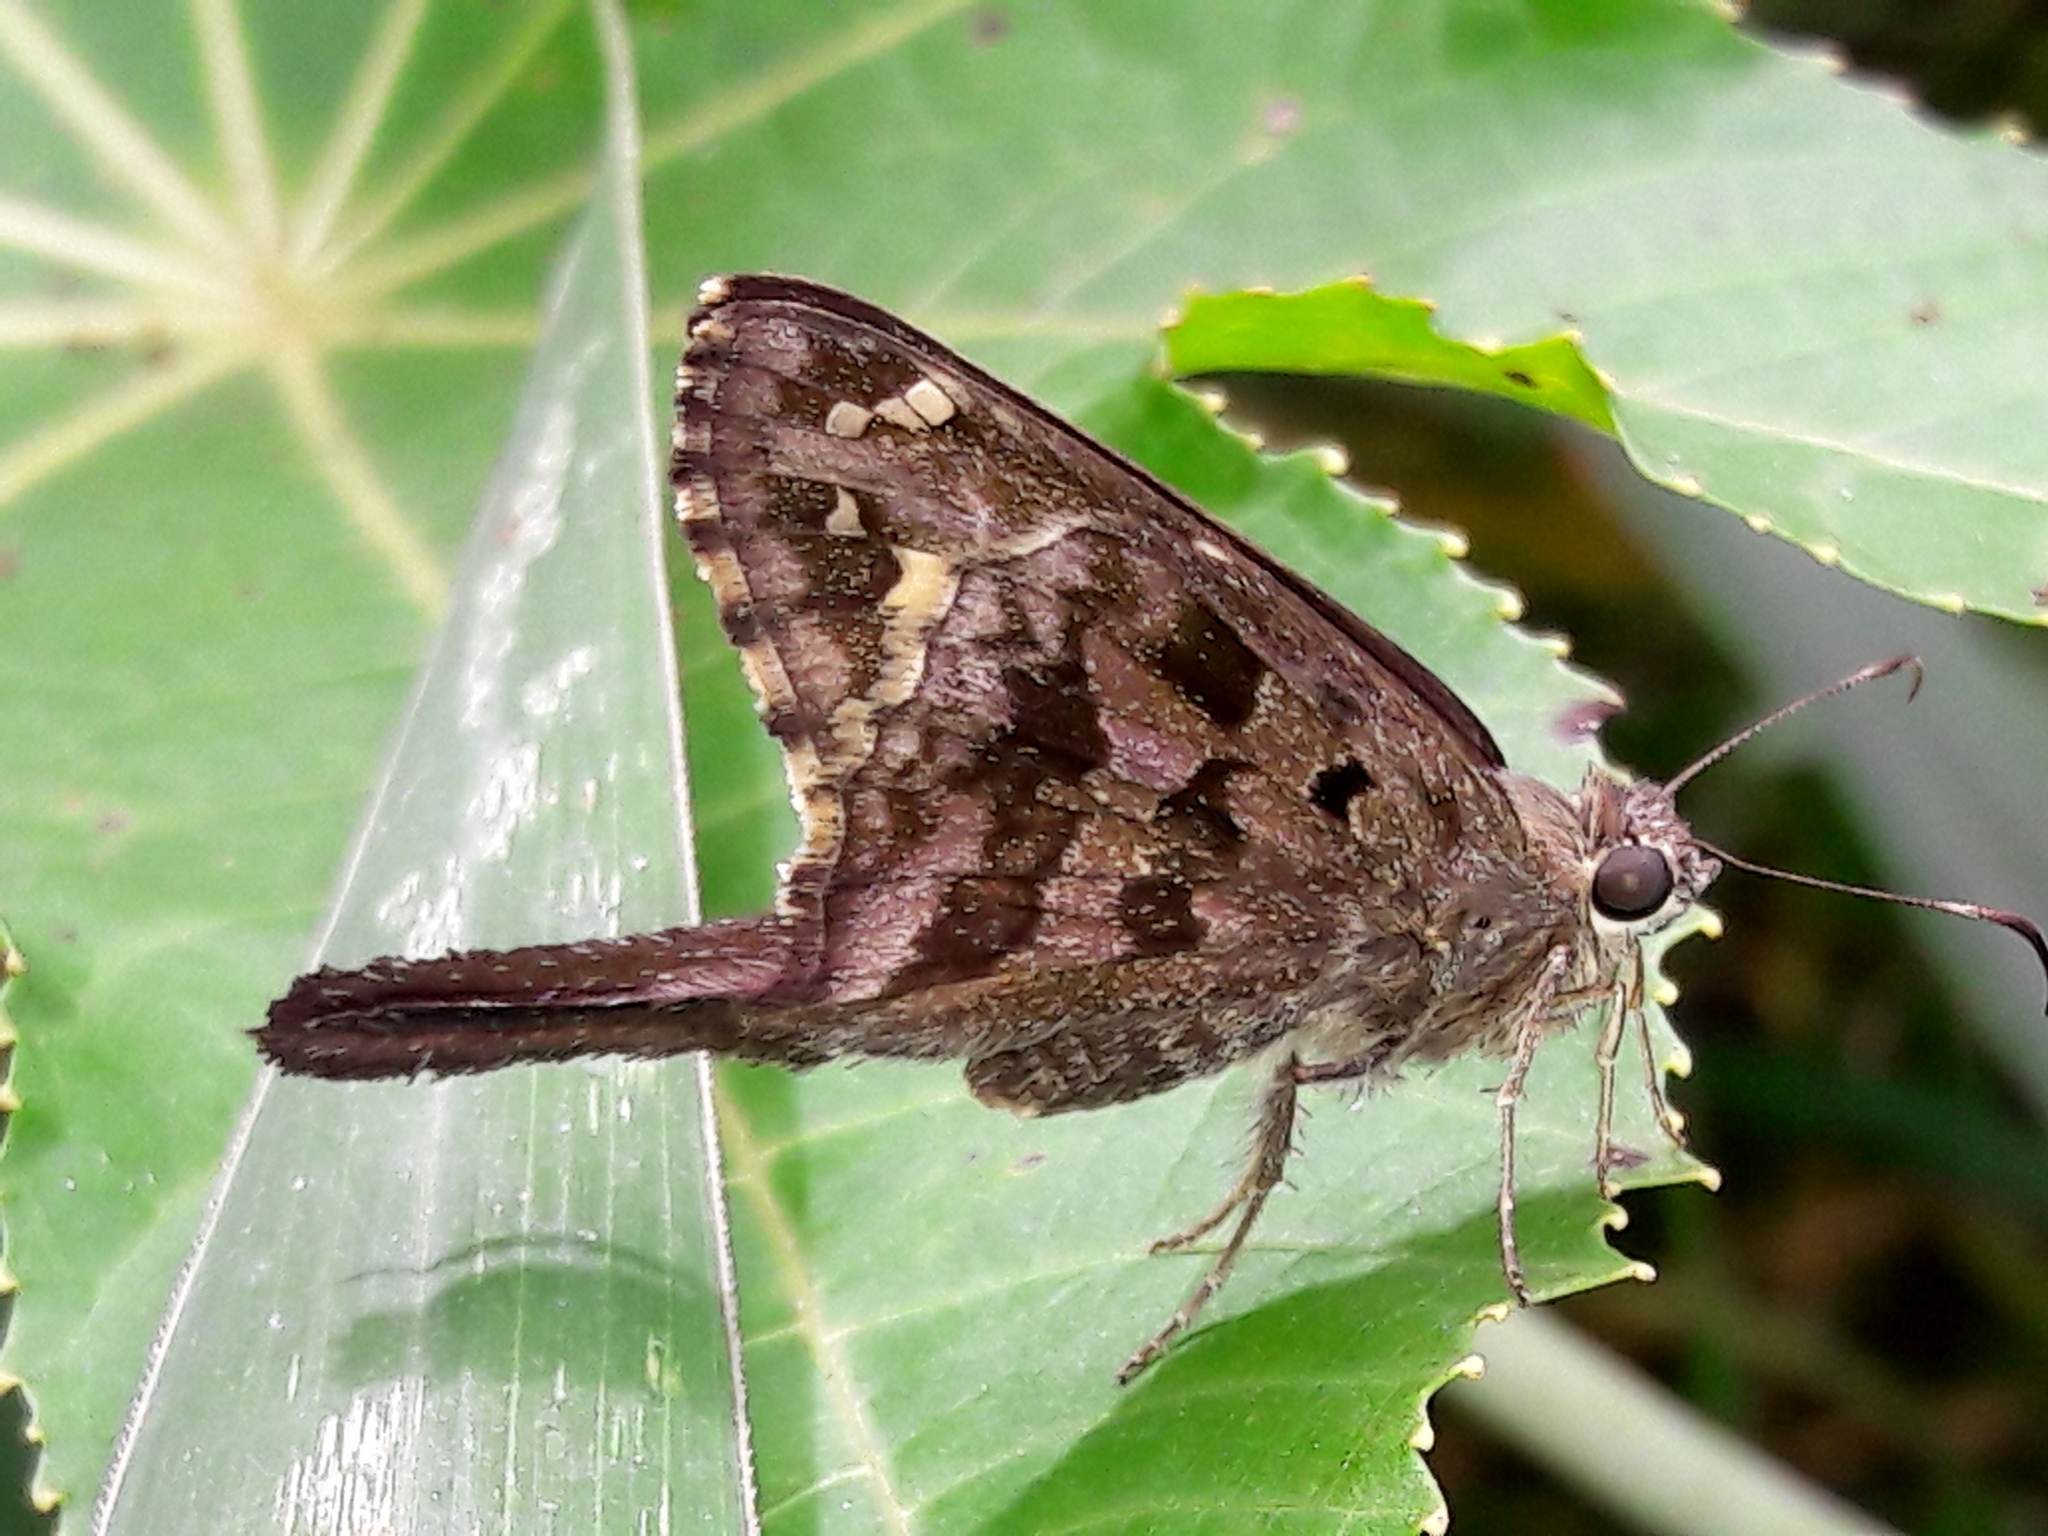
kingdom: Animalia
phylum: Arthropoda
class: Insecta
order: Lepidoptera
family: Hesperiidae
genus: Thorybes
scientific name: Thorybes
